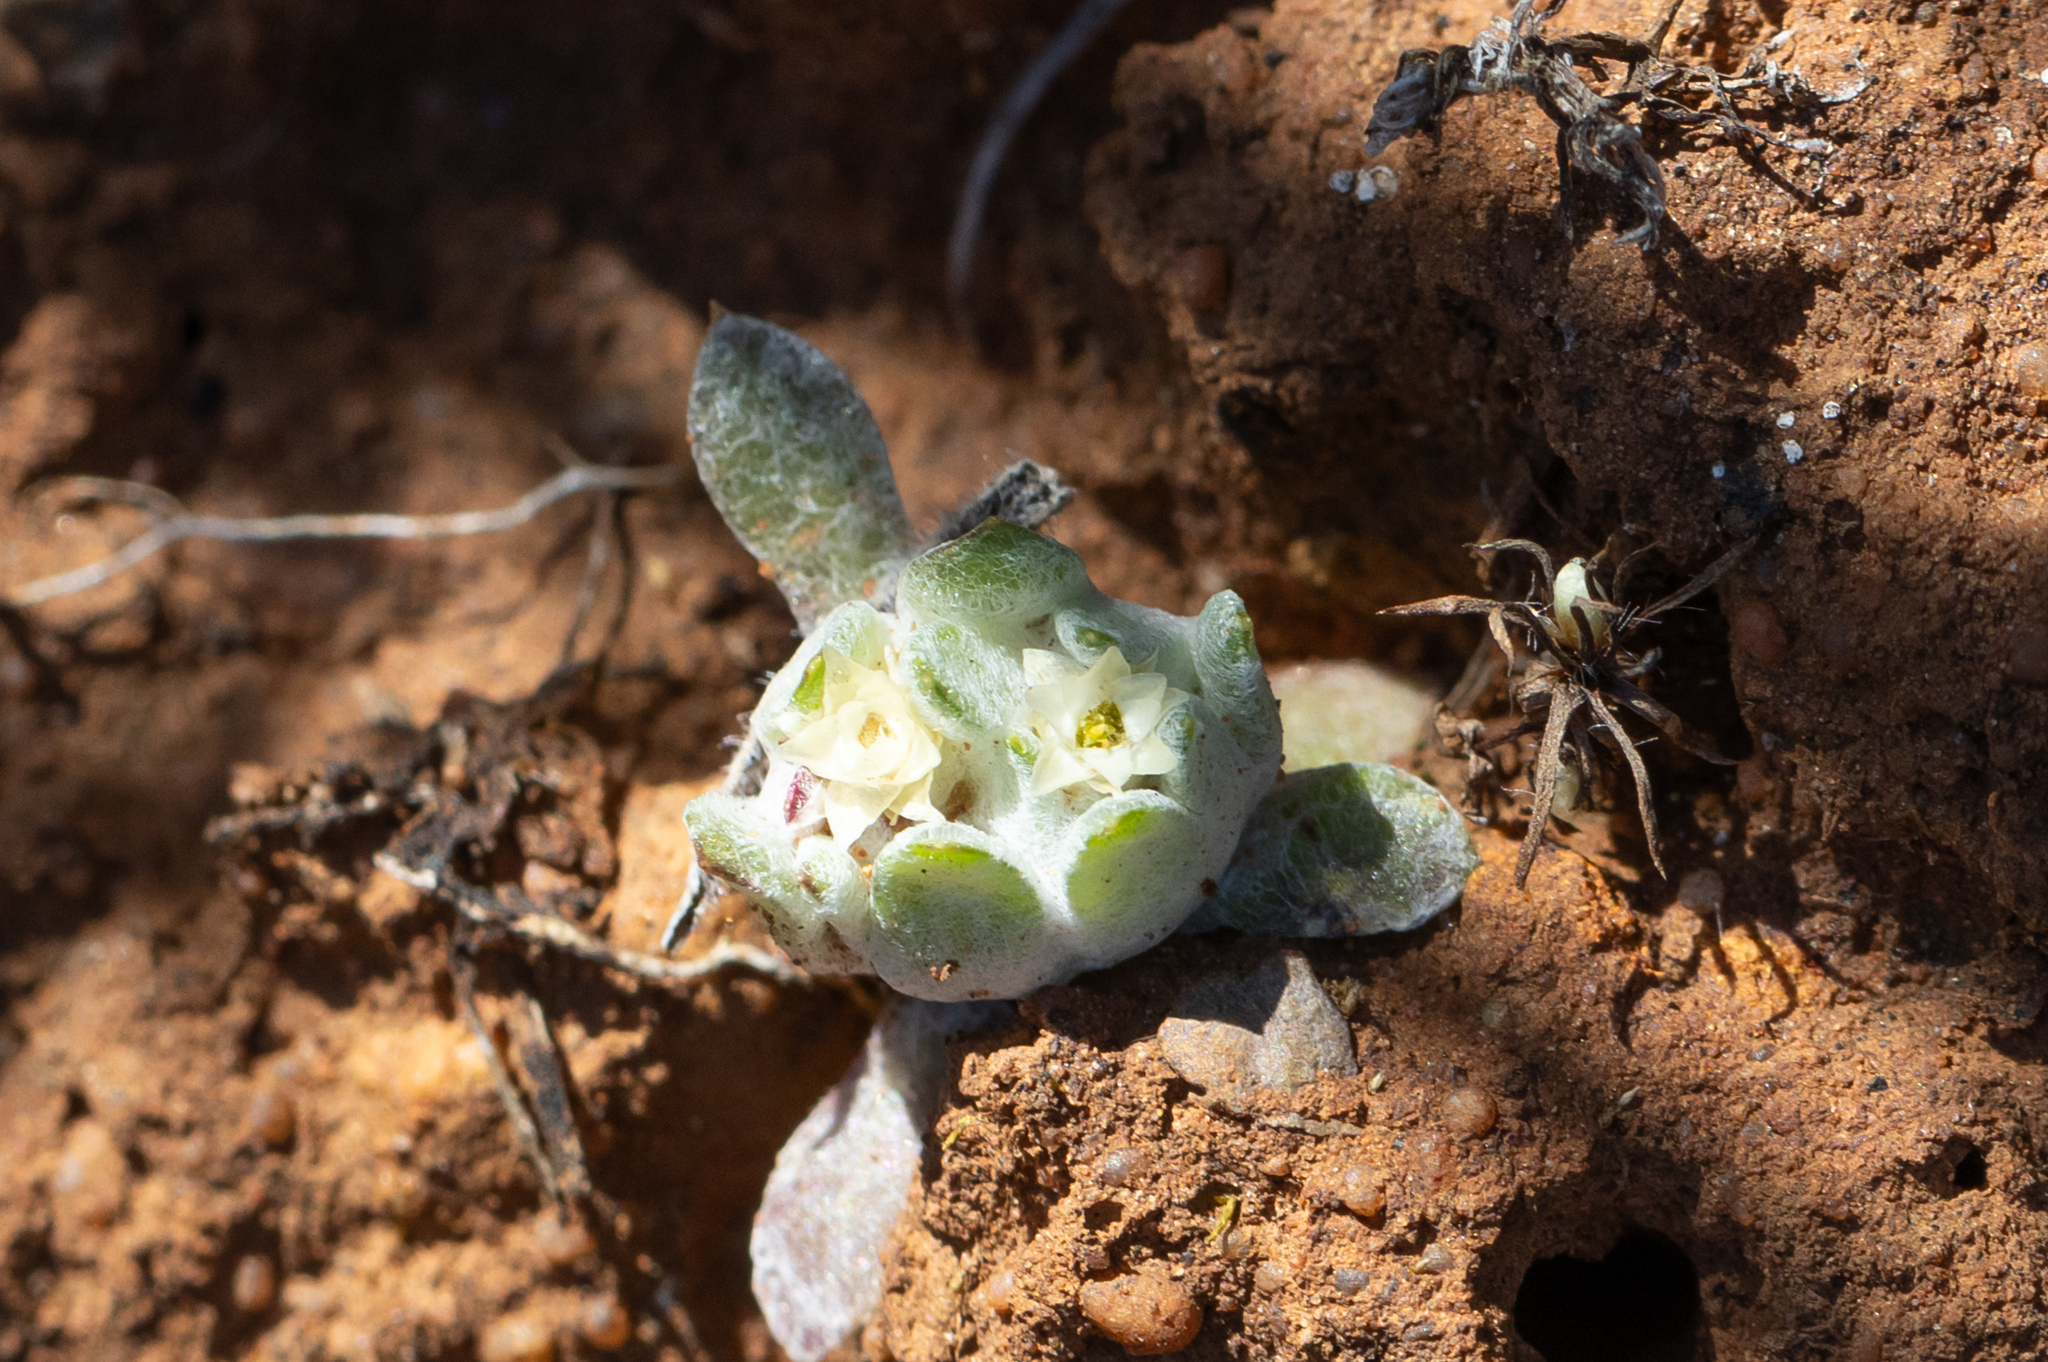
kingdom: Plantae
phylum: Tracheophyta
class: Magnoliopsida
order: Asterales
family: Asteraceae
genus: Actinobole
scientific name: Actinobole uliginosum
